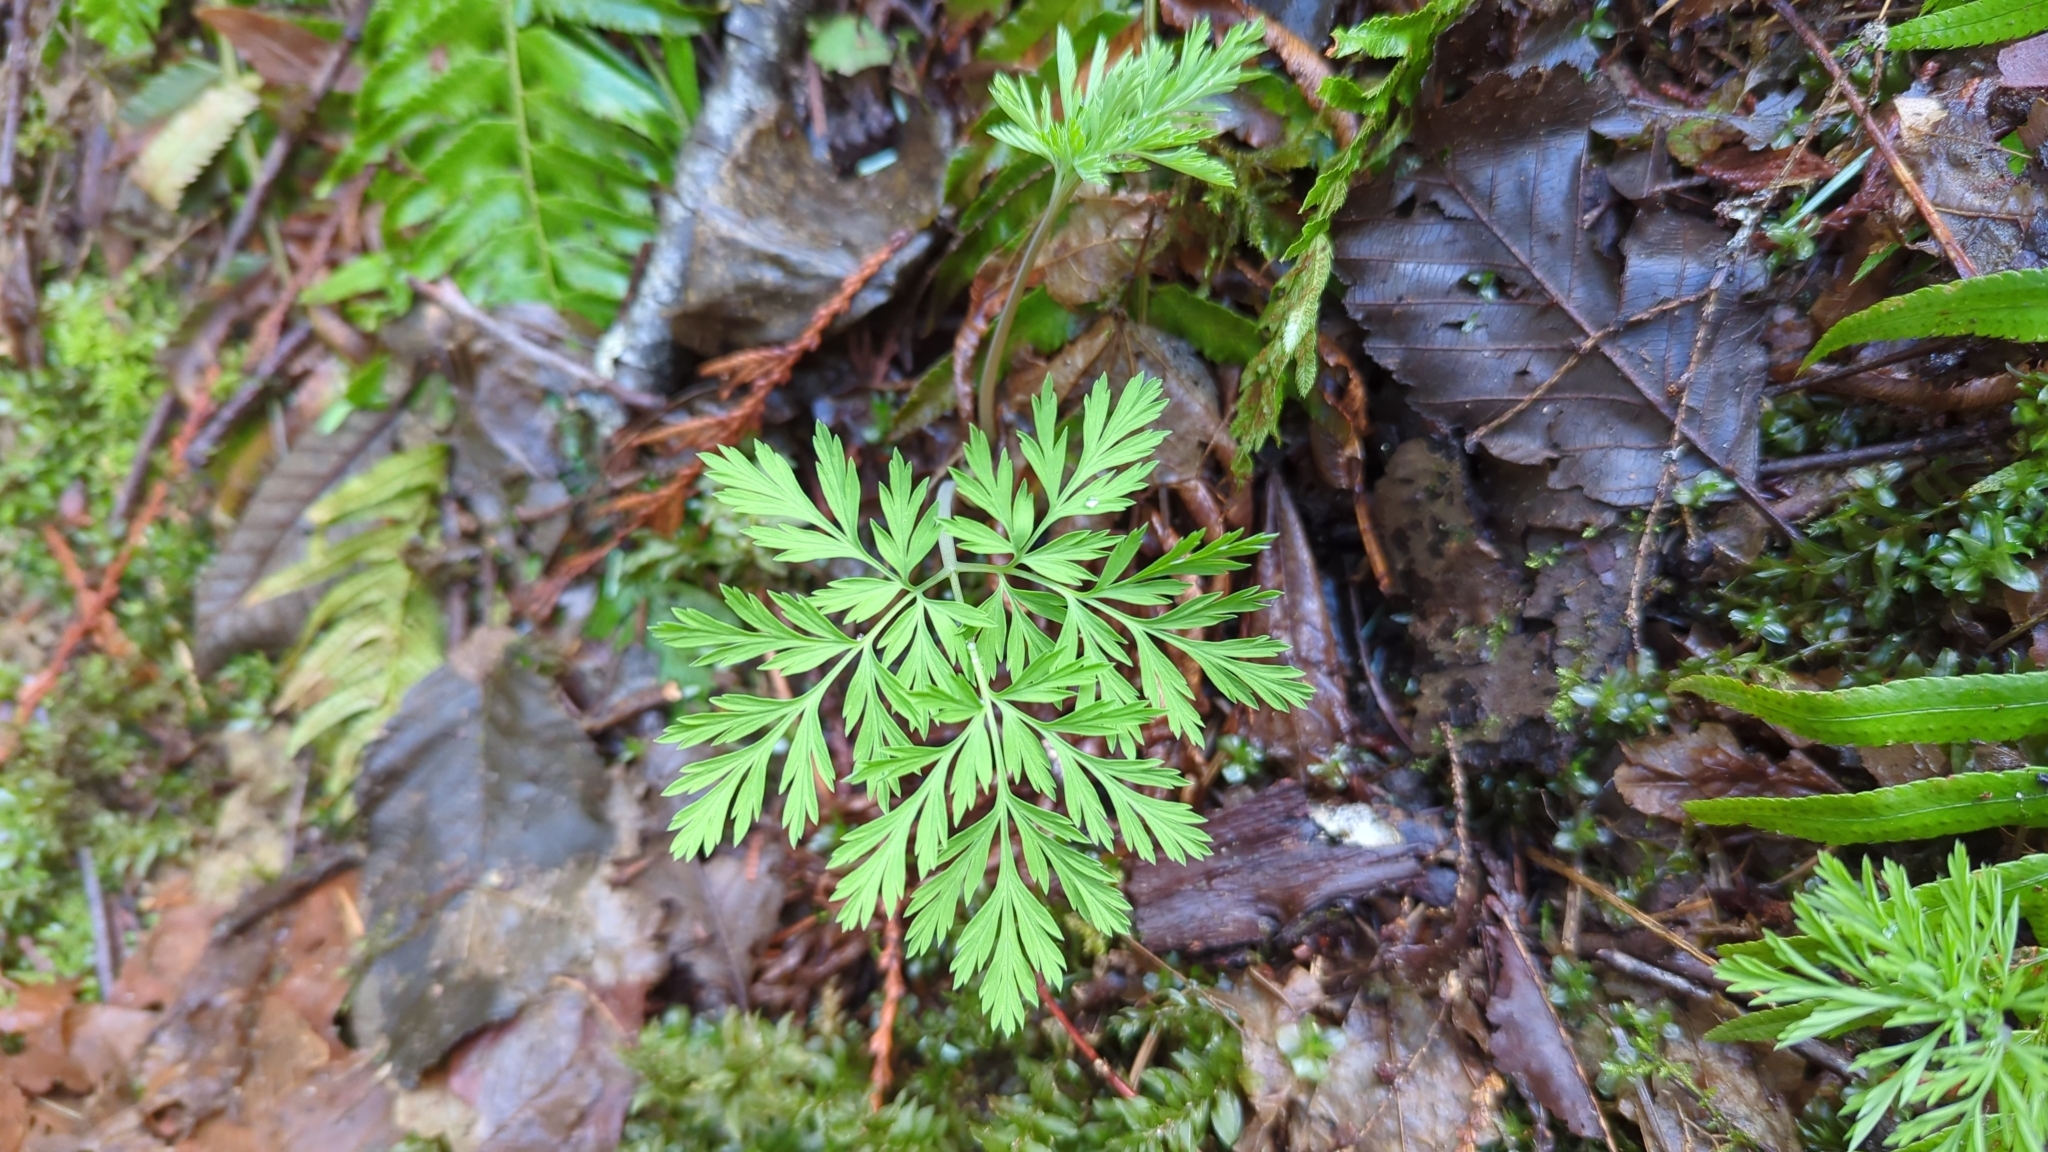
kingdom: Plantae
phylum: Tracheophyta
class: Magnoliopsida
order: Ranunculales
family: Papaveraceae
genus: Dicentra
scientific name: Dicentra formosa
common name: Bleeding-heart
